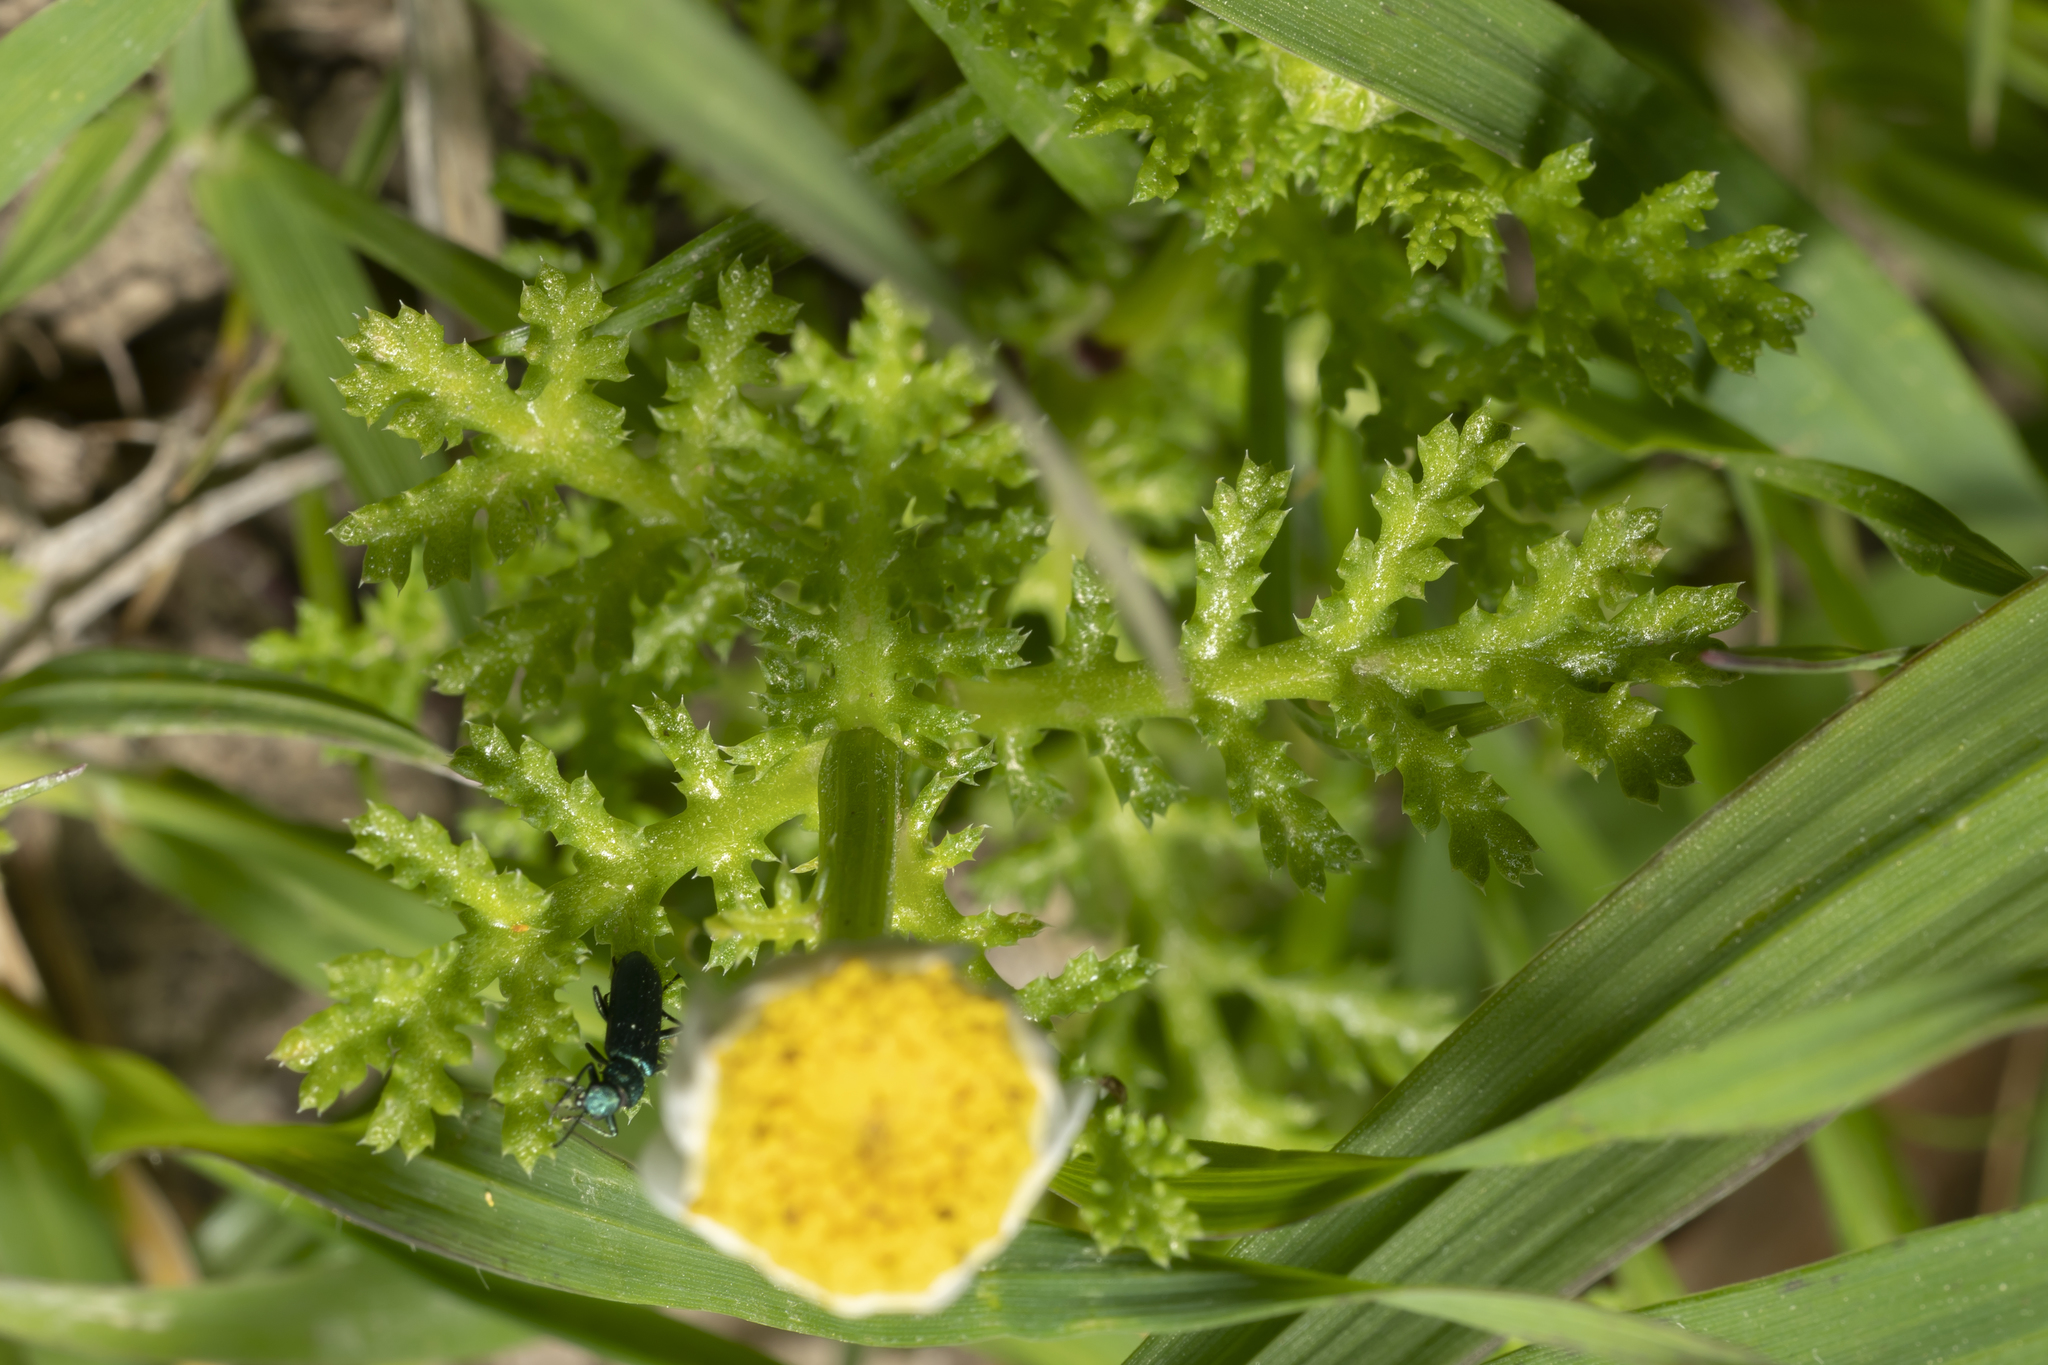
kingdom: Plantae
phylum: Tracheophyta
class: Magnoliopsida
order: Asterales
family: Asteraceae
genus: Cota
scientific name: Cota amblyolepis
